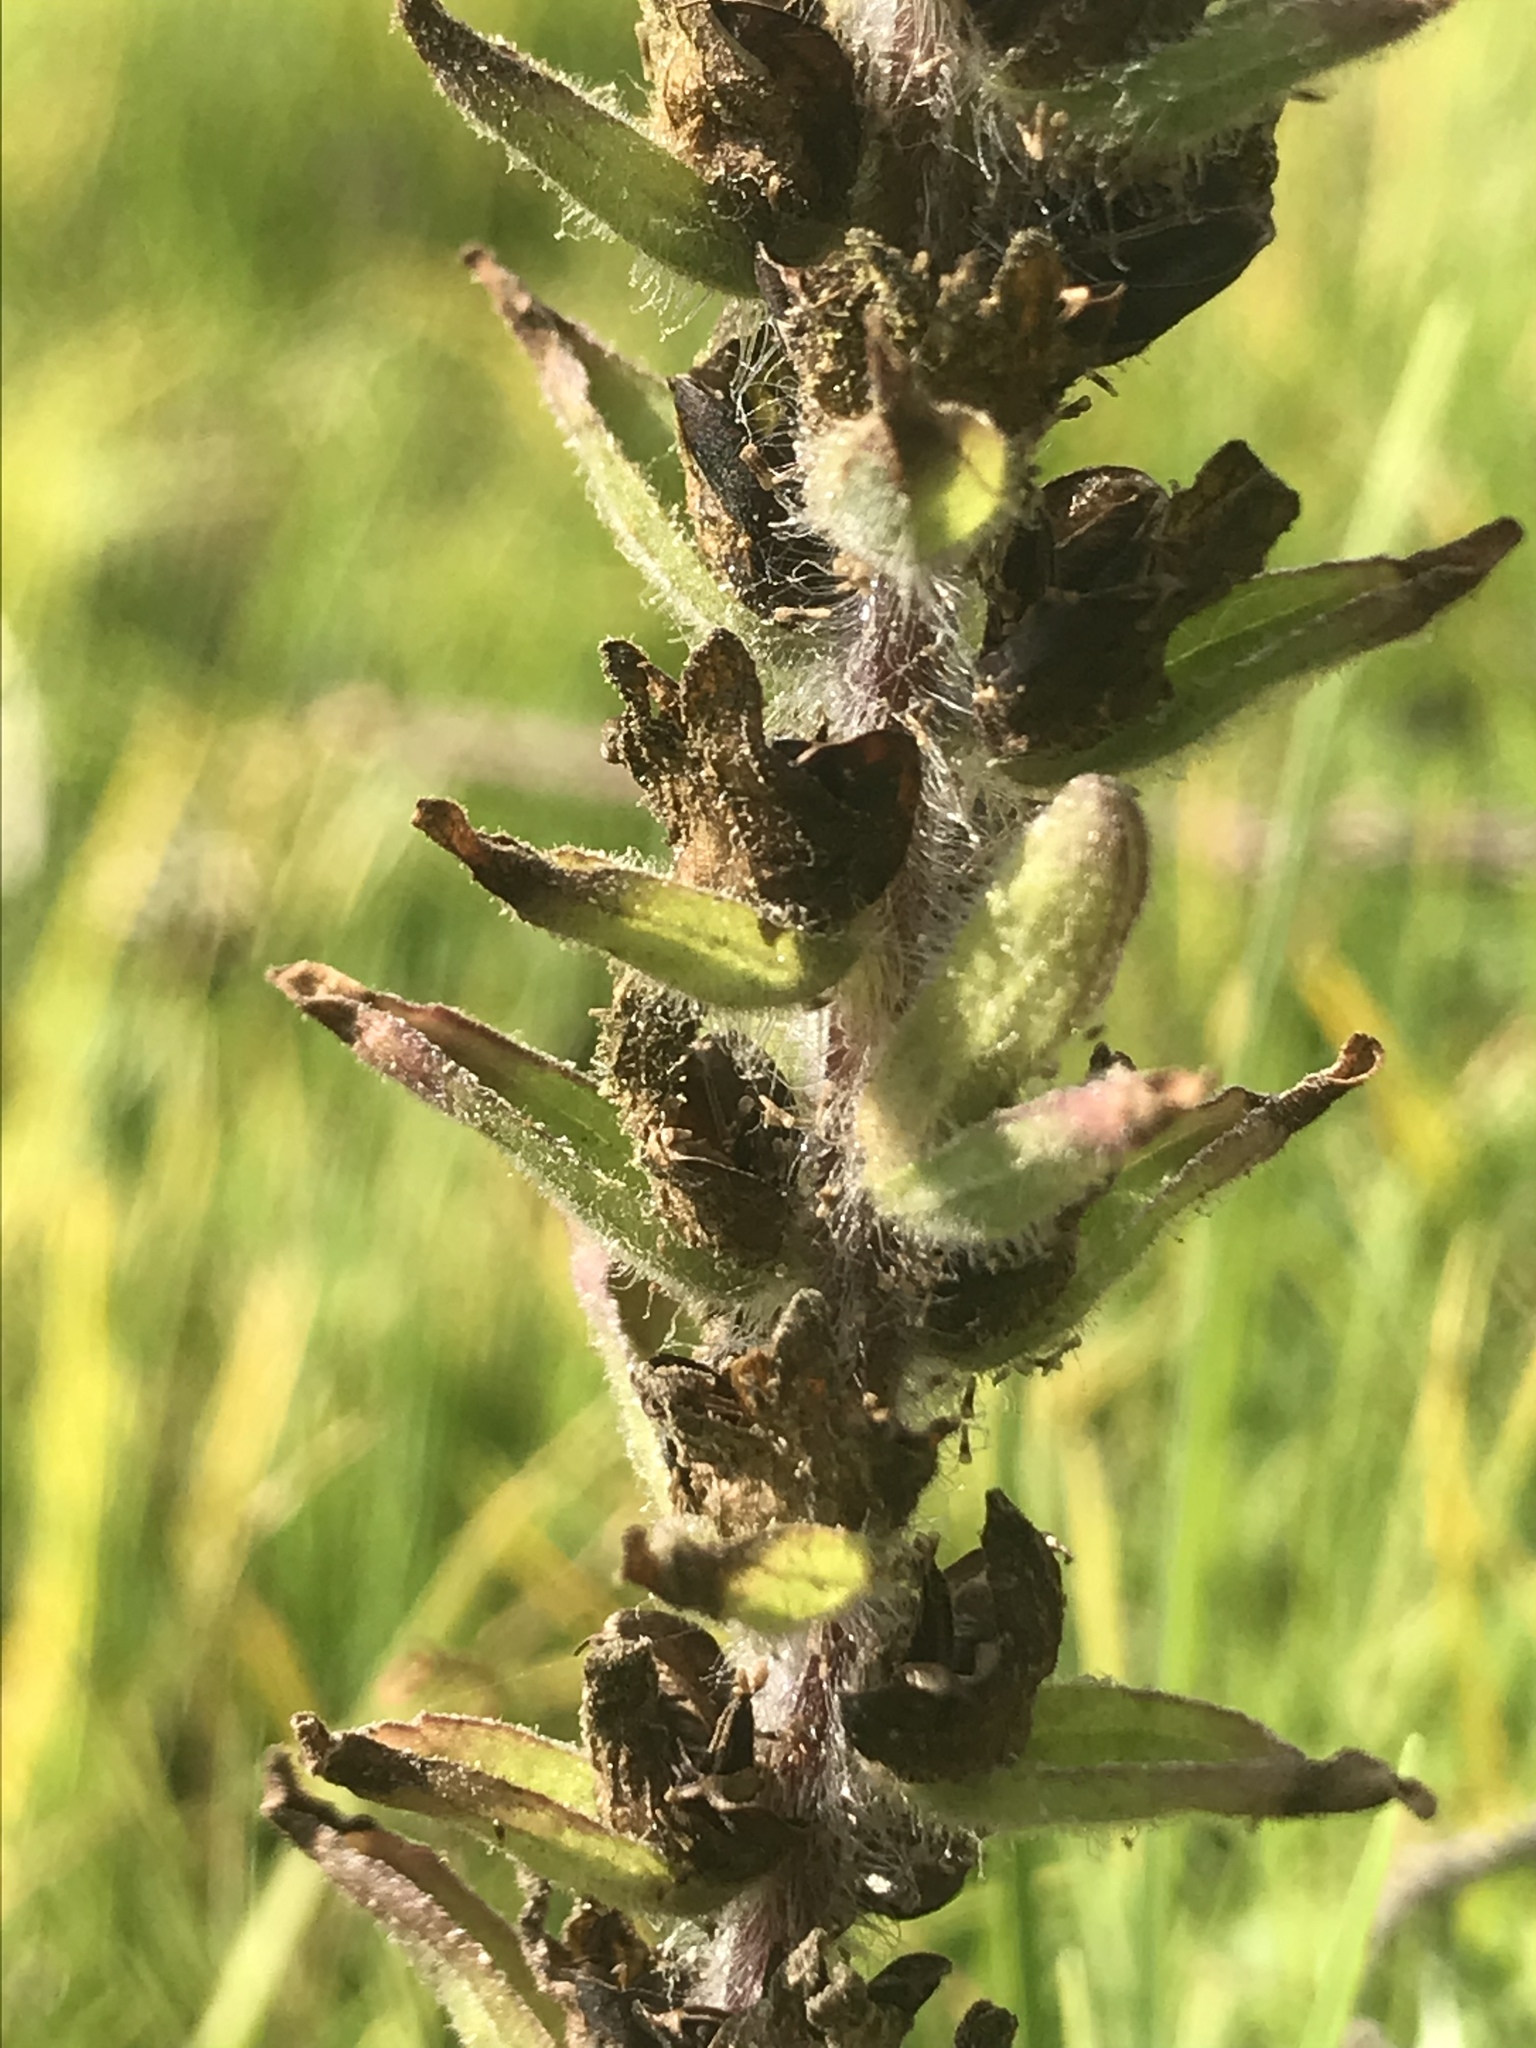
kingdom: Plantae
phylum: Tracheophyta
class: Magnoliopsida
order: Lamiales
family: Orobanchaceae
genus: Castilleja
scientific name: Castilleja arvensis
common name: Indian paintbrush
